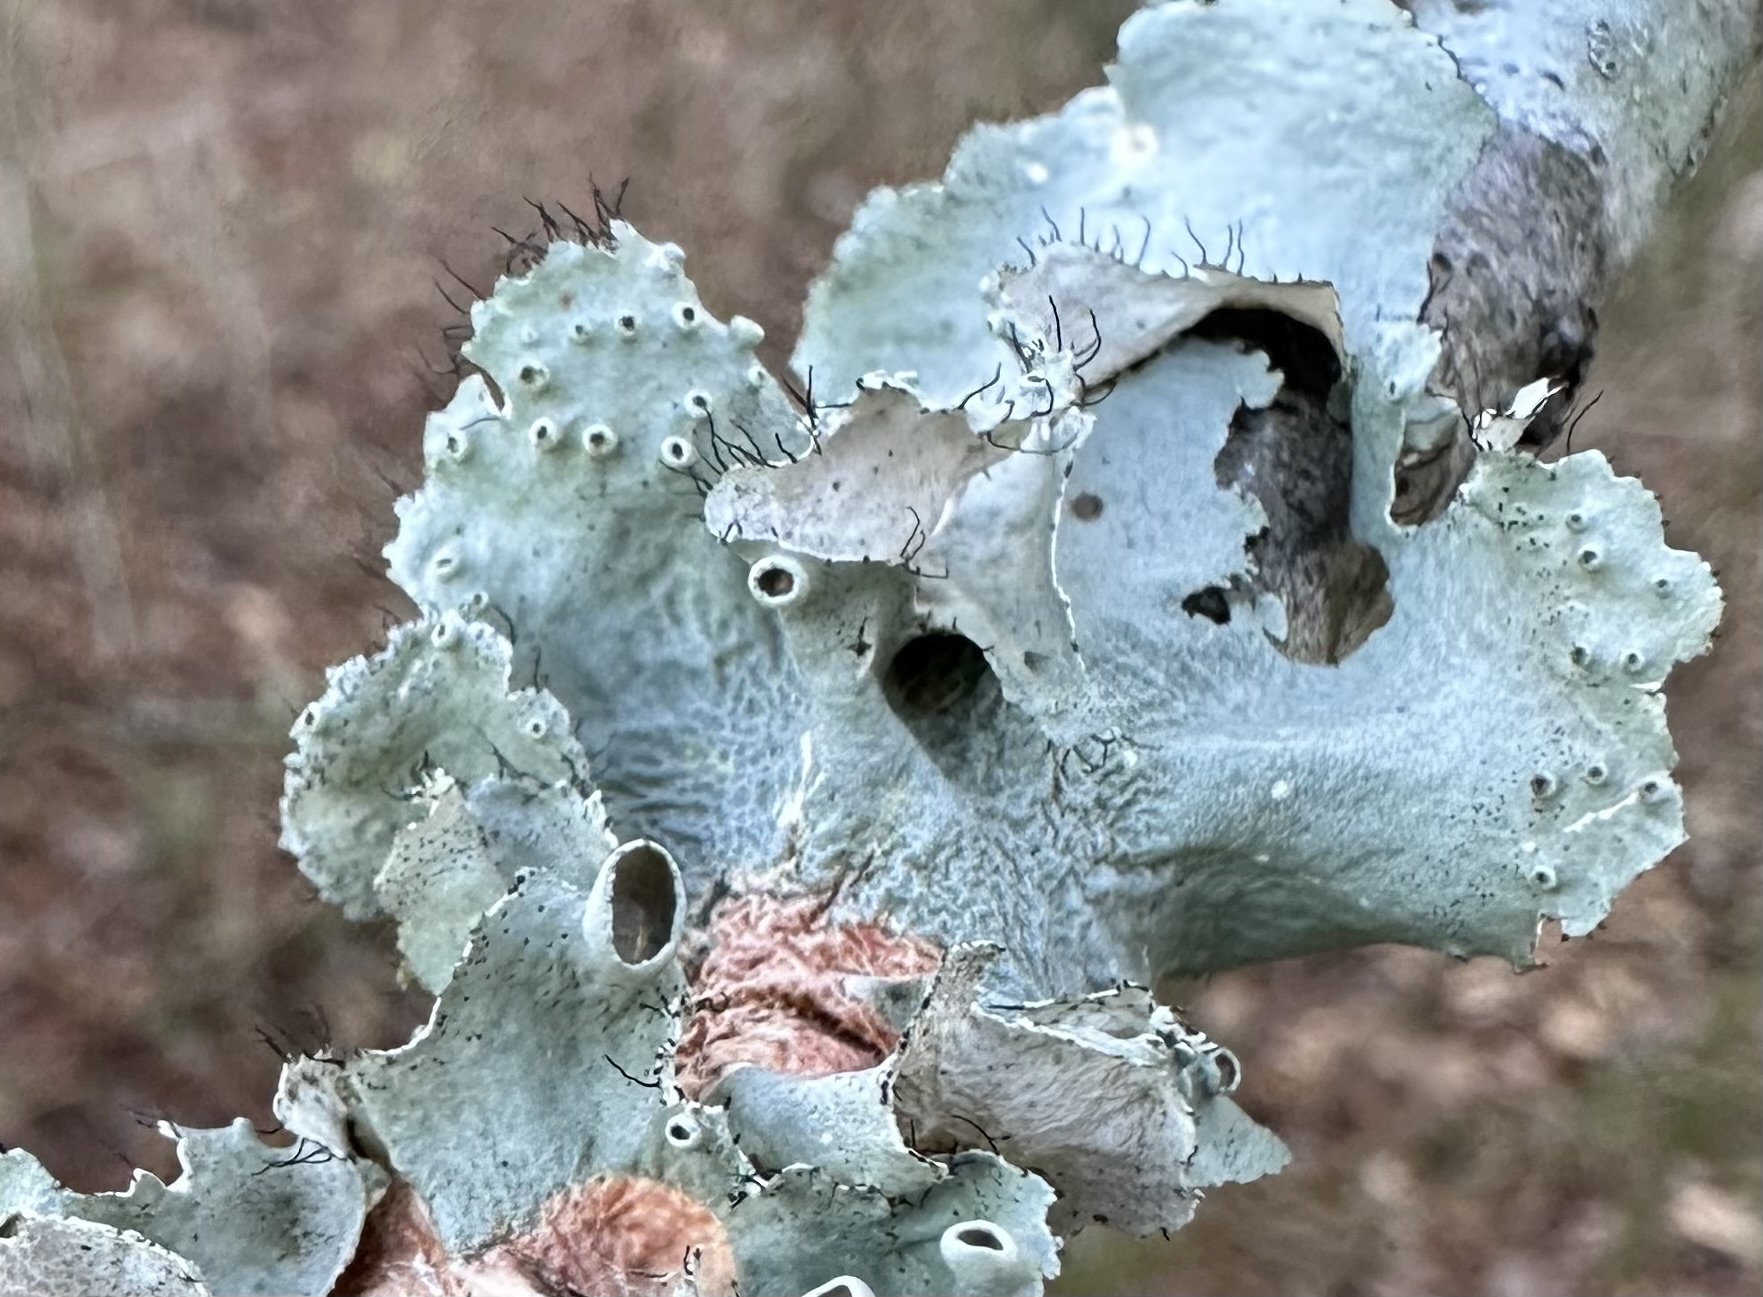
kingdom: Fungi
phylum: Ascomycota
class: Lecanoromycetes
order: Lecanorales
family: Parmeliaceae
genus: Parmotrema
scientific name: Parmotrema perforatum
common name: Perforated ruffle lichen
